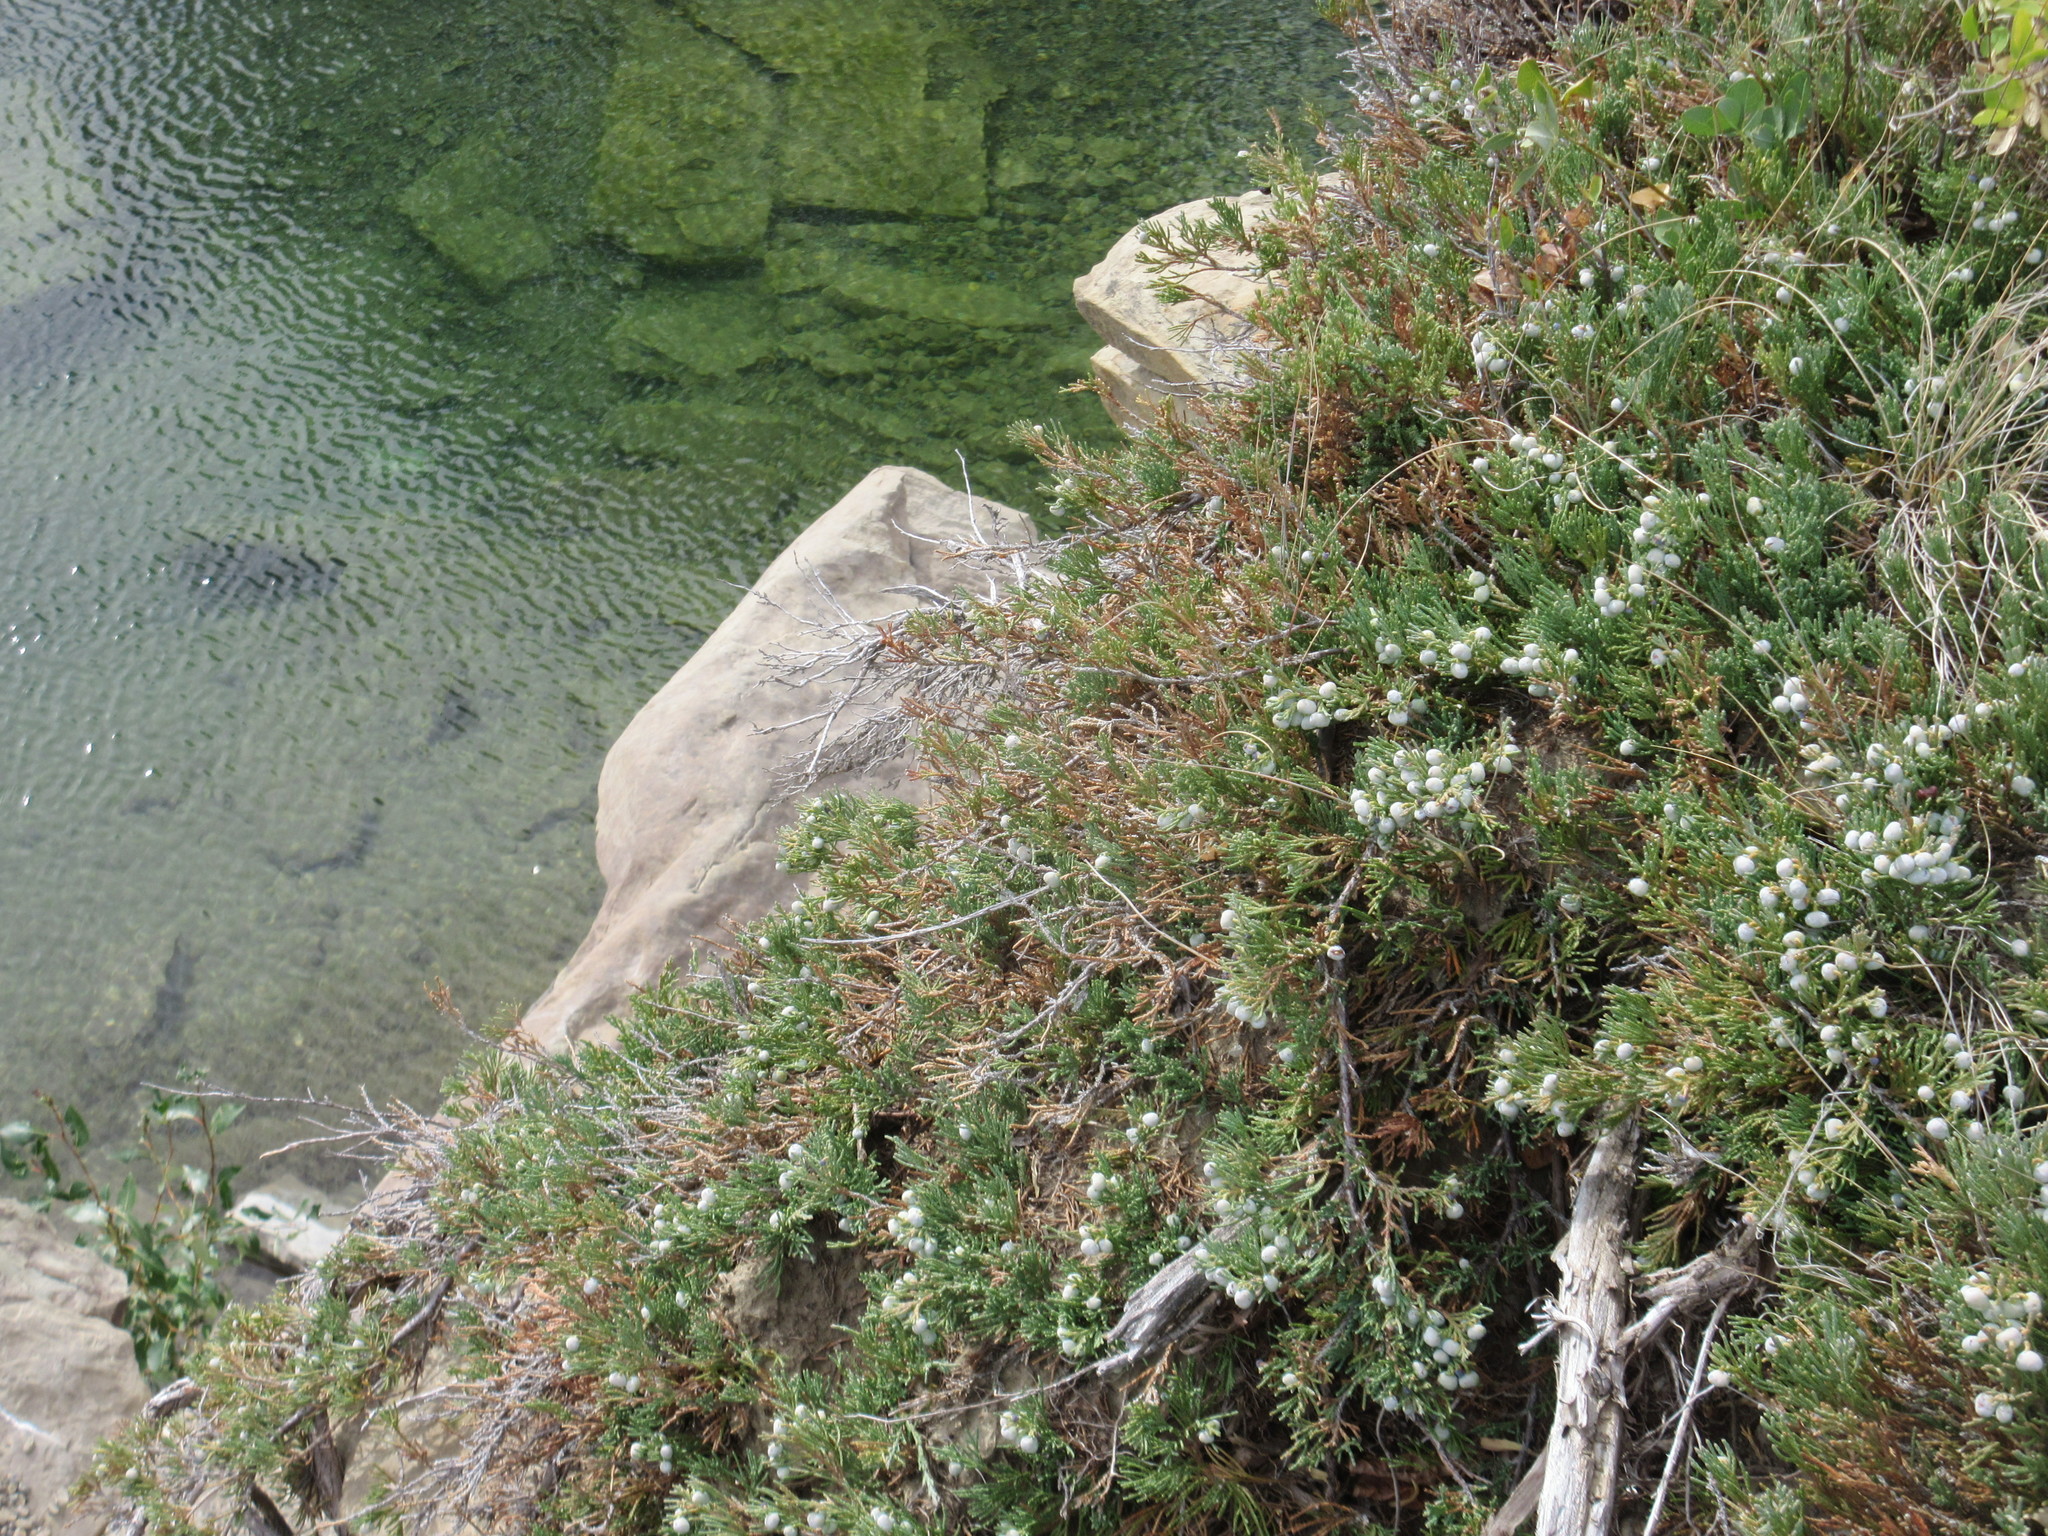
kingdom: Plantae
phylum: Tracheophyta
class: Pinopsida
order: Pinales
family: Cupressaceae
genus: Juniperus
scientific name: Juniperus horizontalis
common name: Creeping juniper
